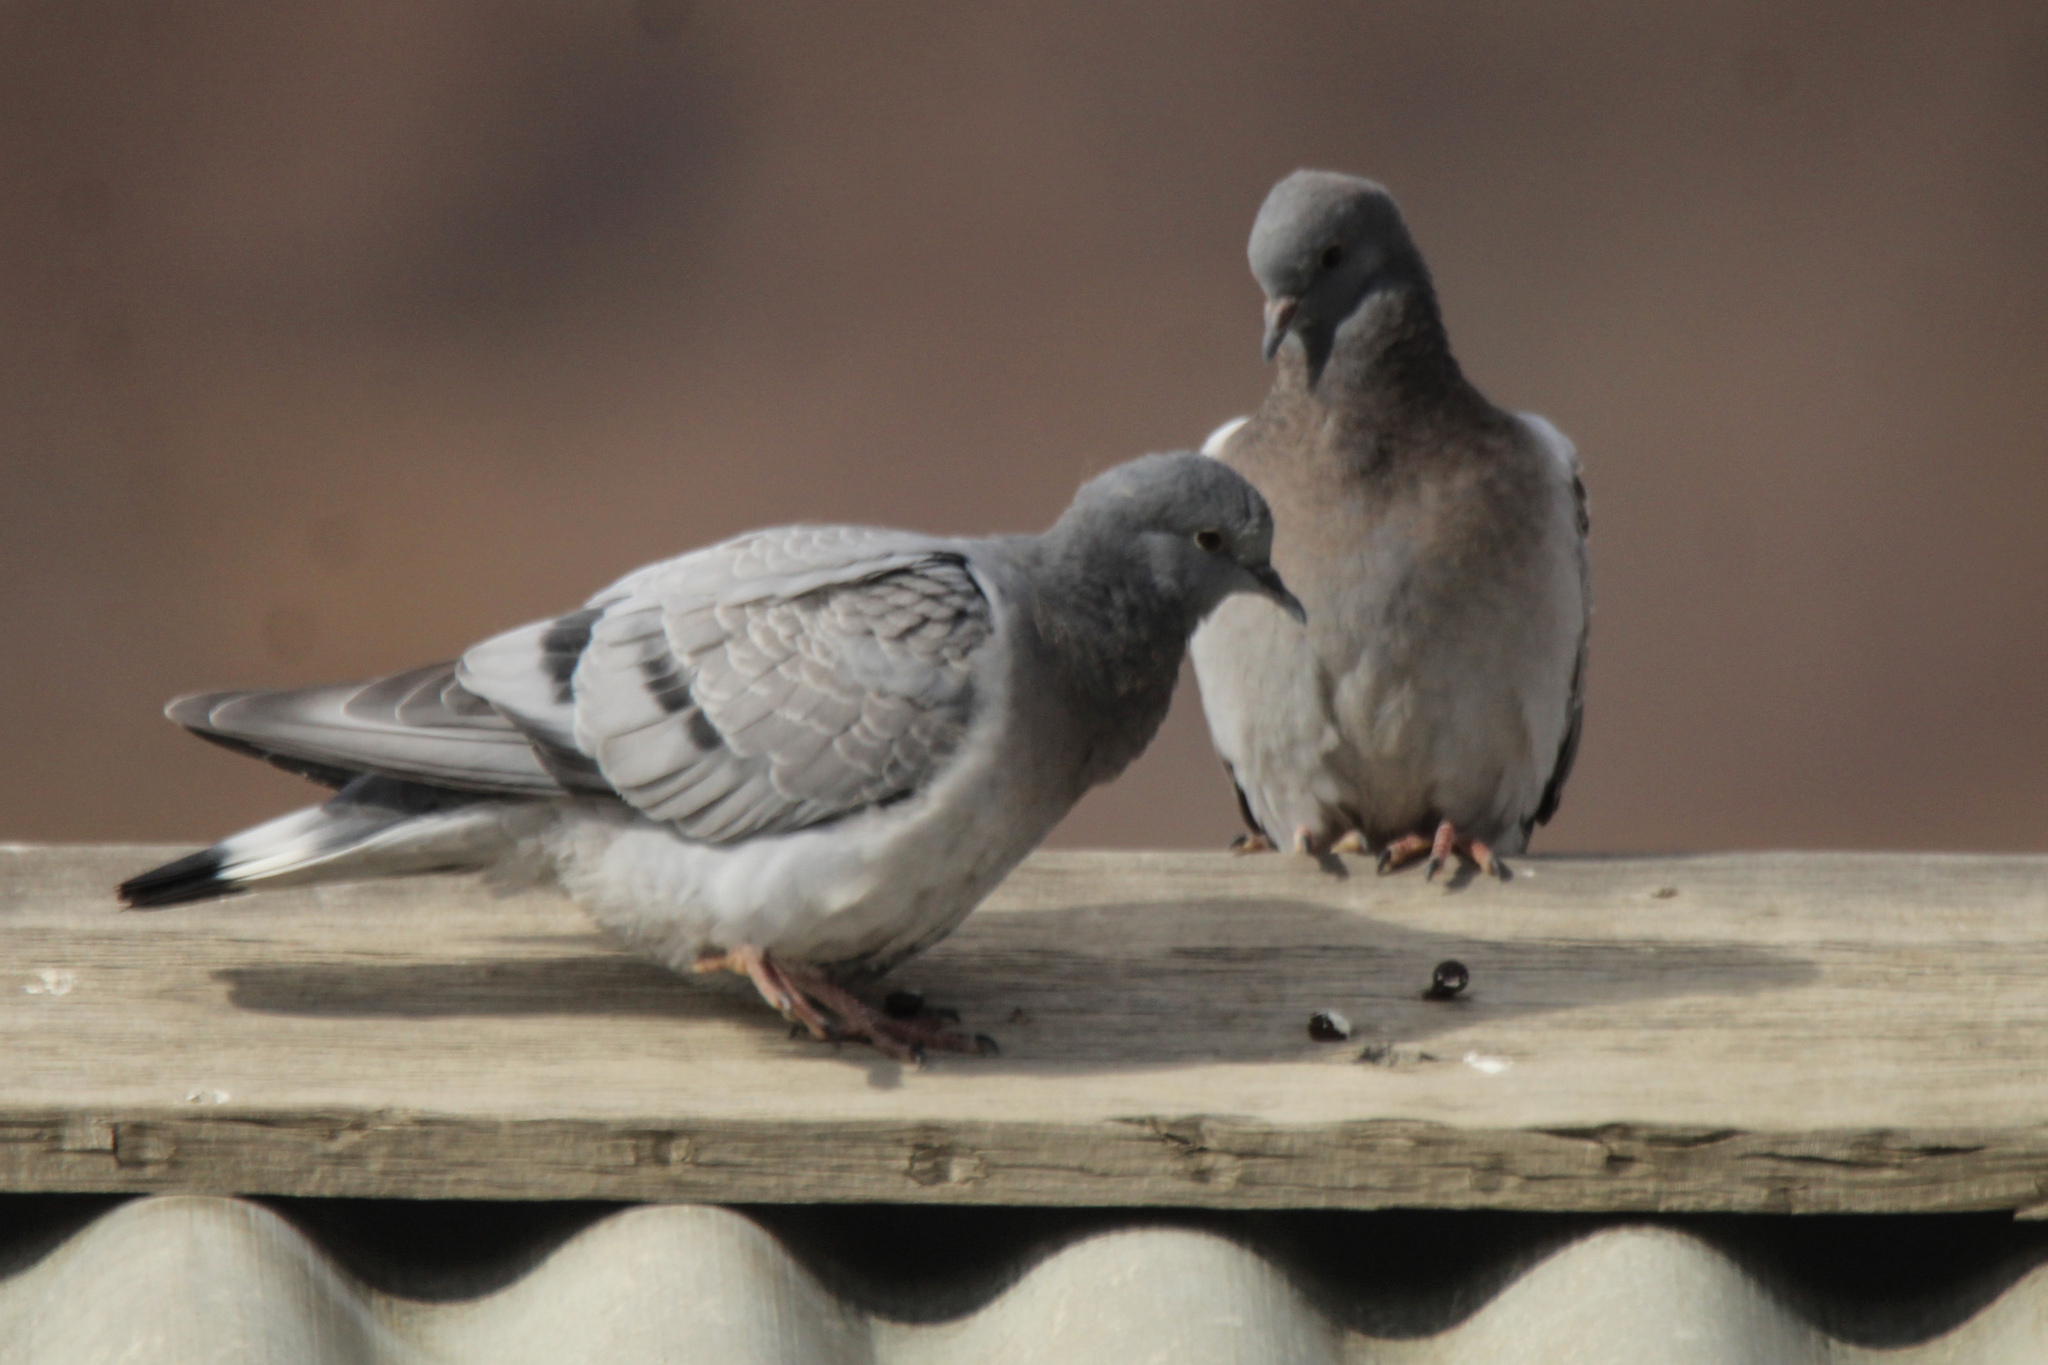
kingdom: Animalia
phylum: Chordata
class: Aves
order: Columbiformes
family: Columbidae
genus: Columba
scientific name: Columba rupestris
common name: Hill pigeon
